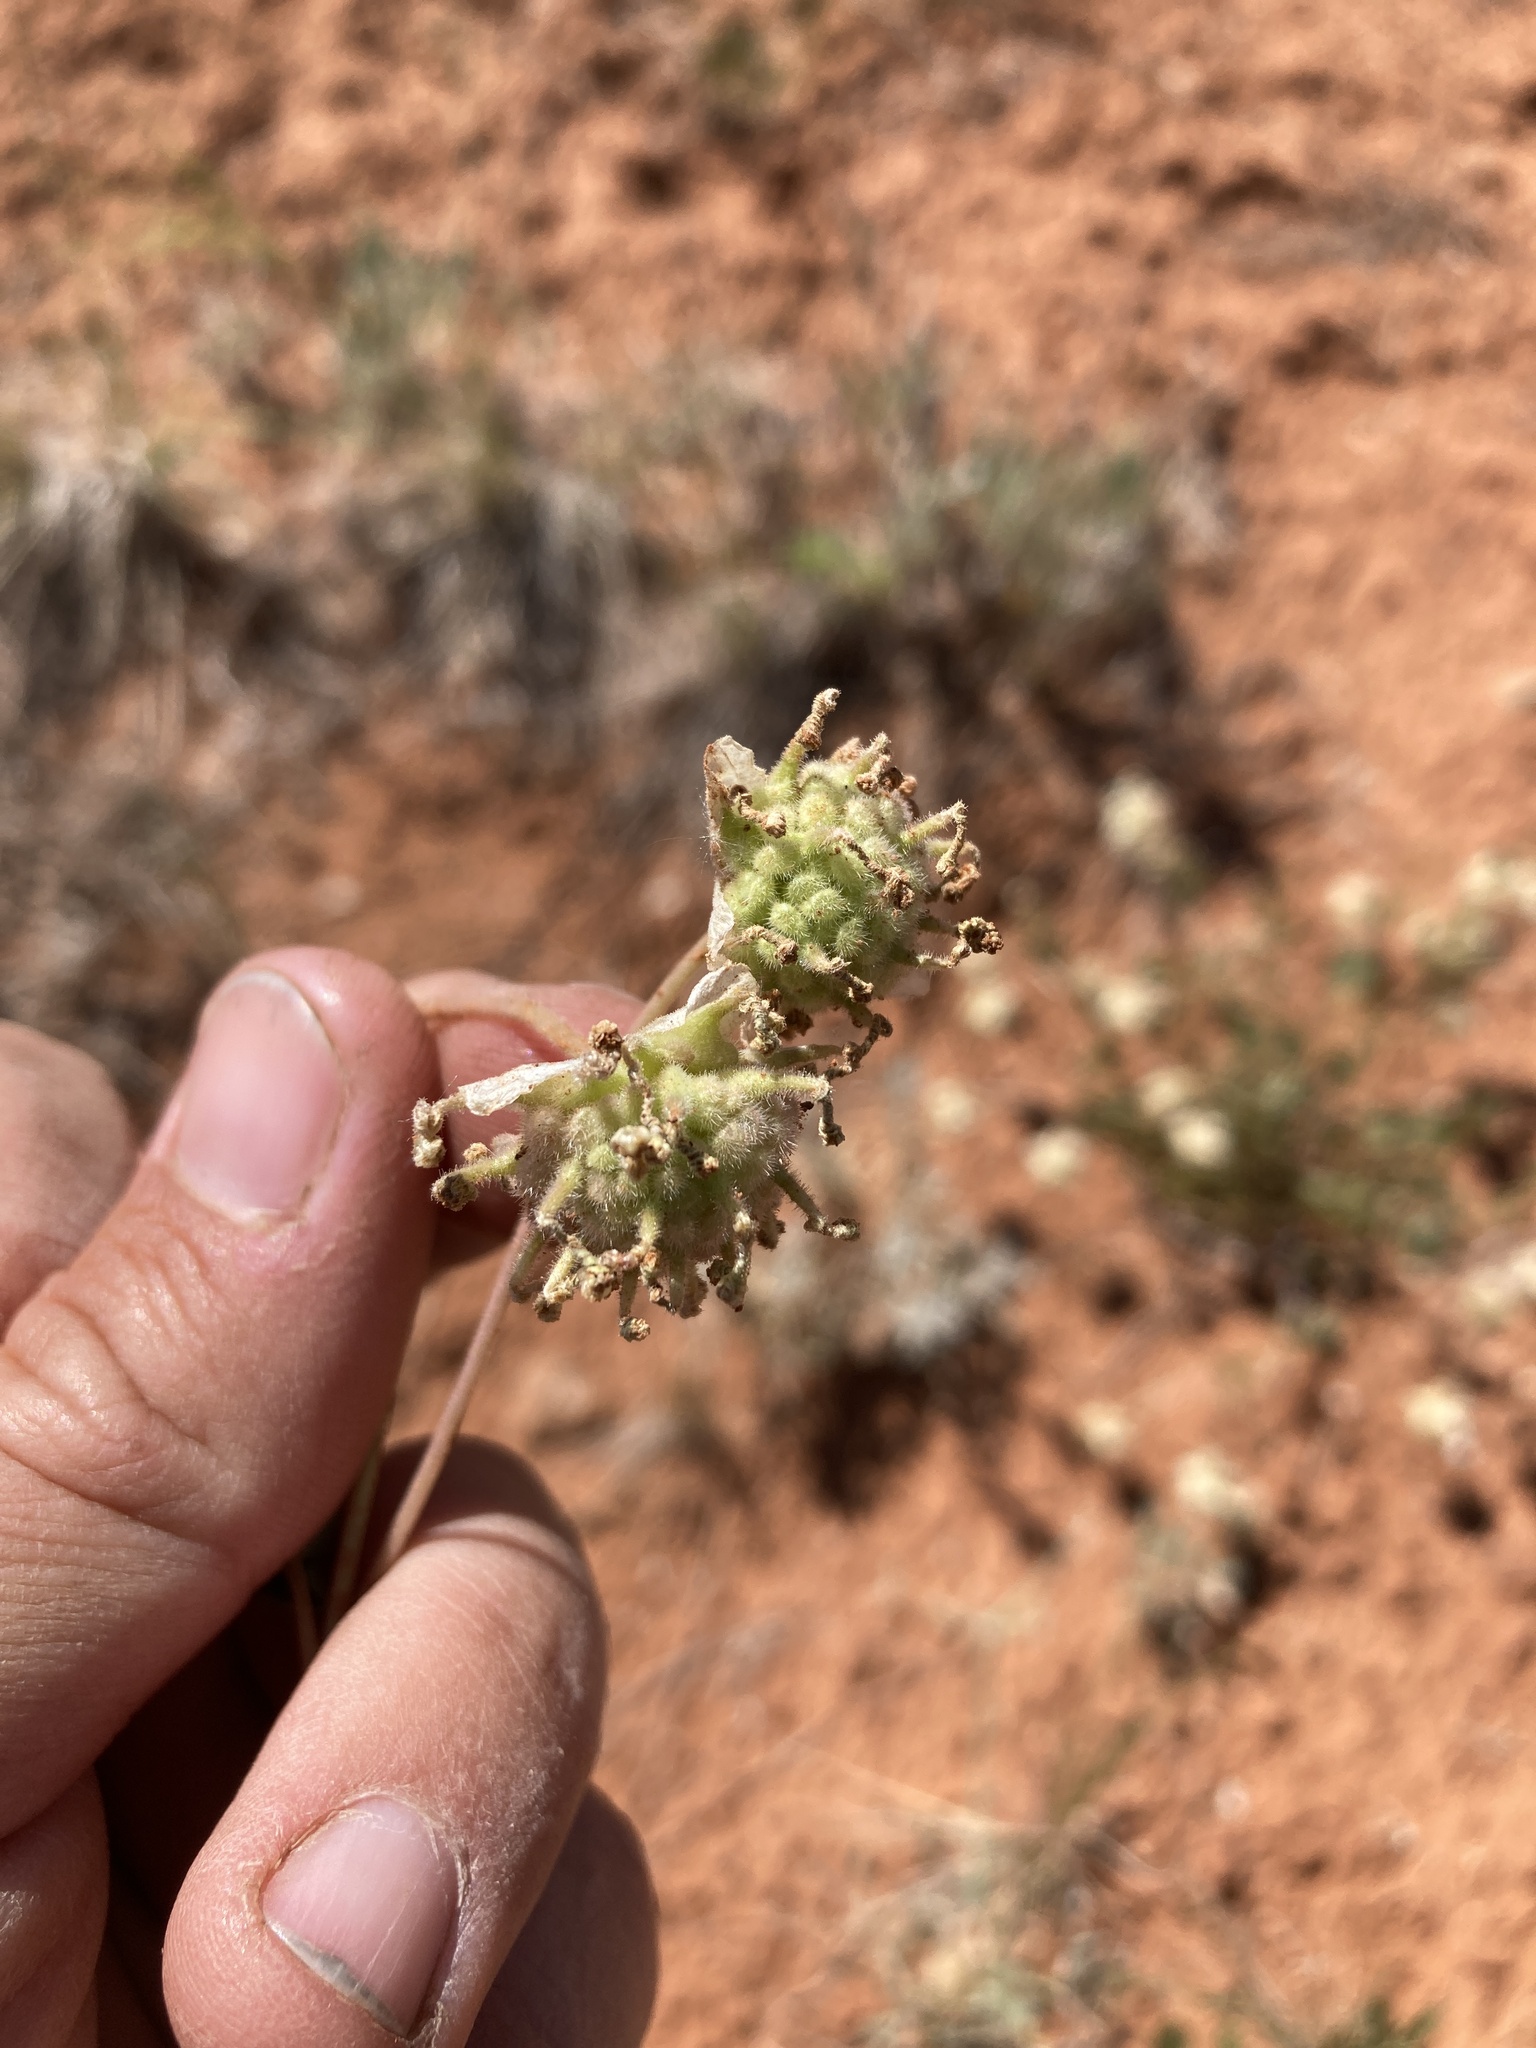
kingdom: Plantae
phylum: Tracheophyta
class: Magnoliopsida
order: Caryophyllales
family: Nyctaginaceae
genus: Abronia
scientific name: Abronia elliptica
